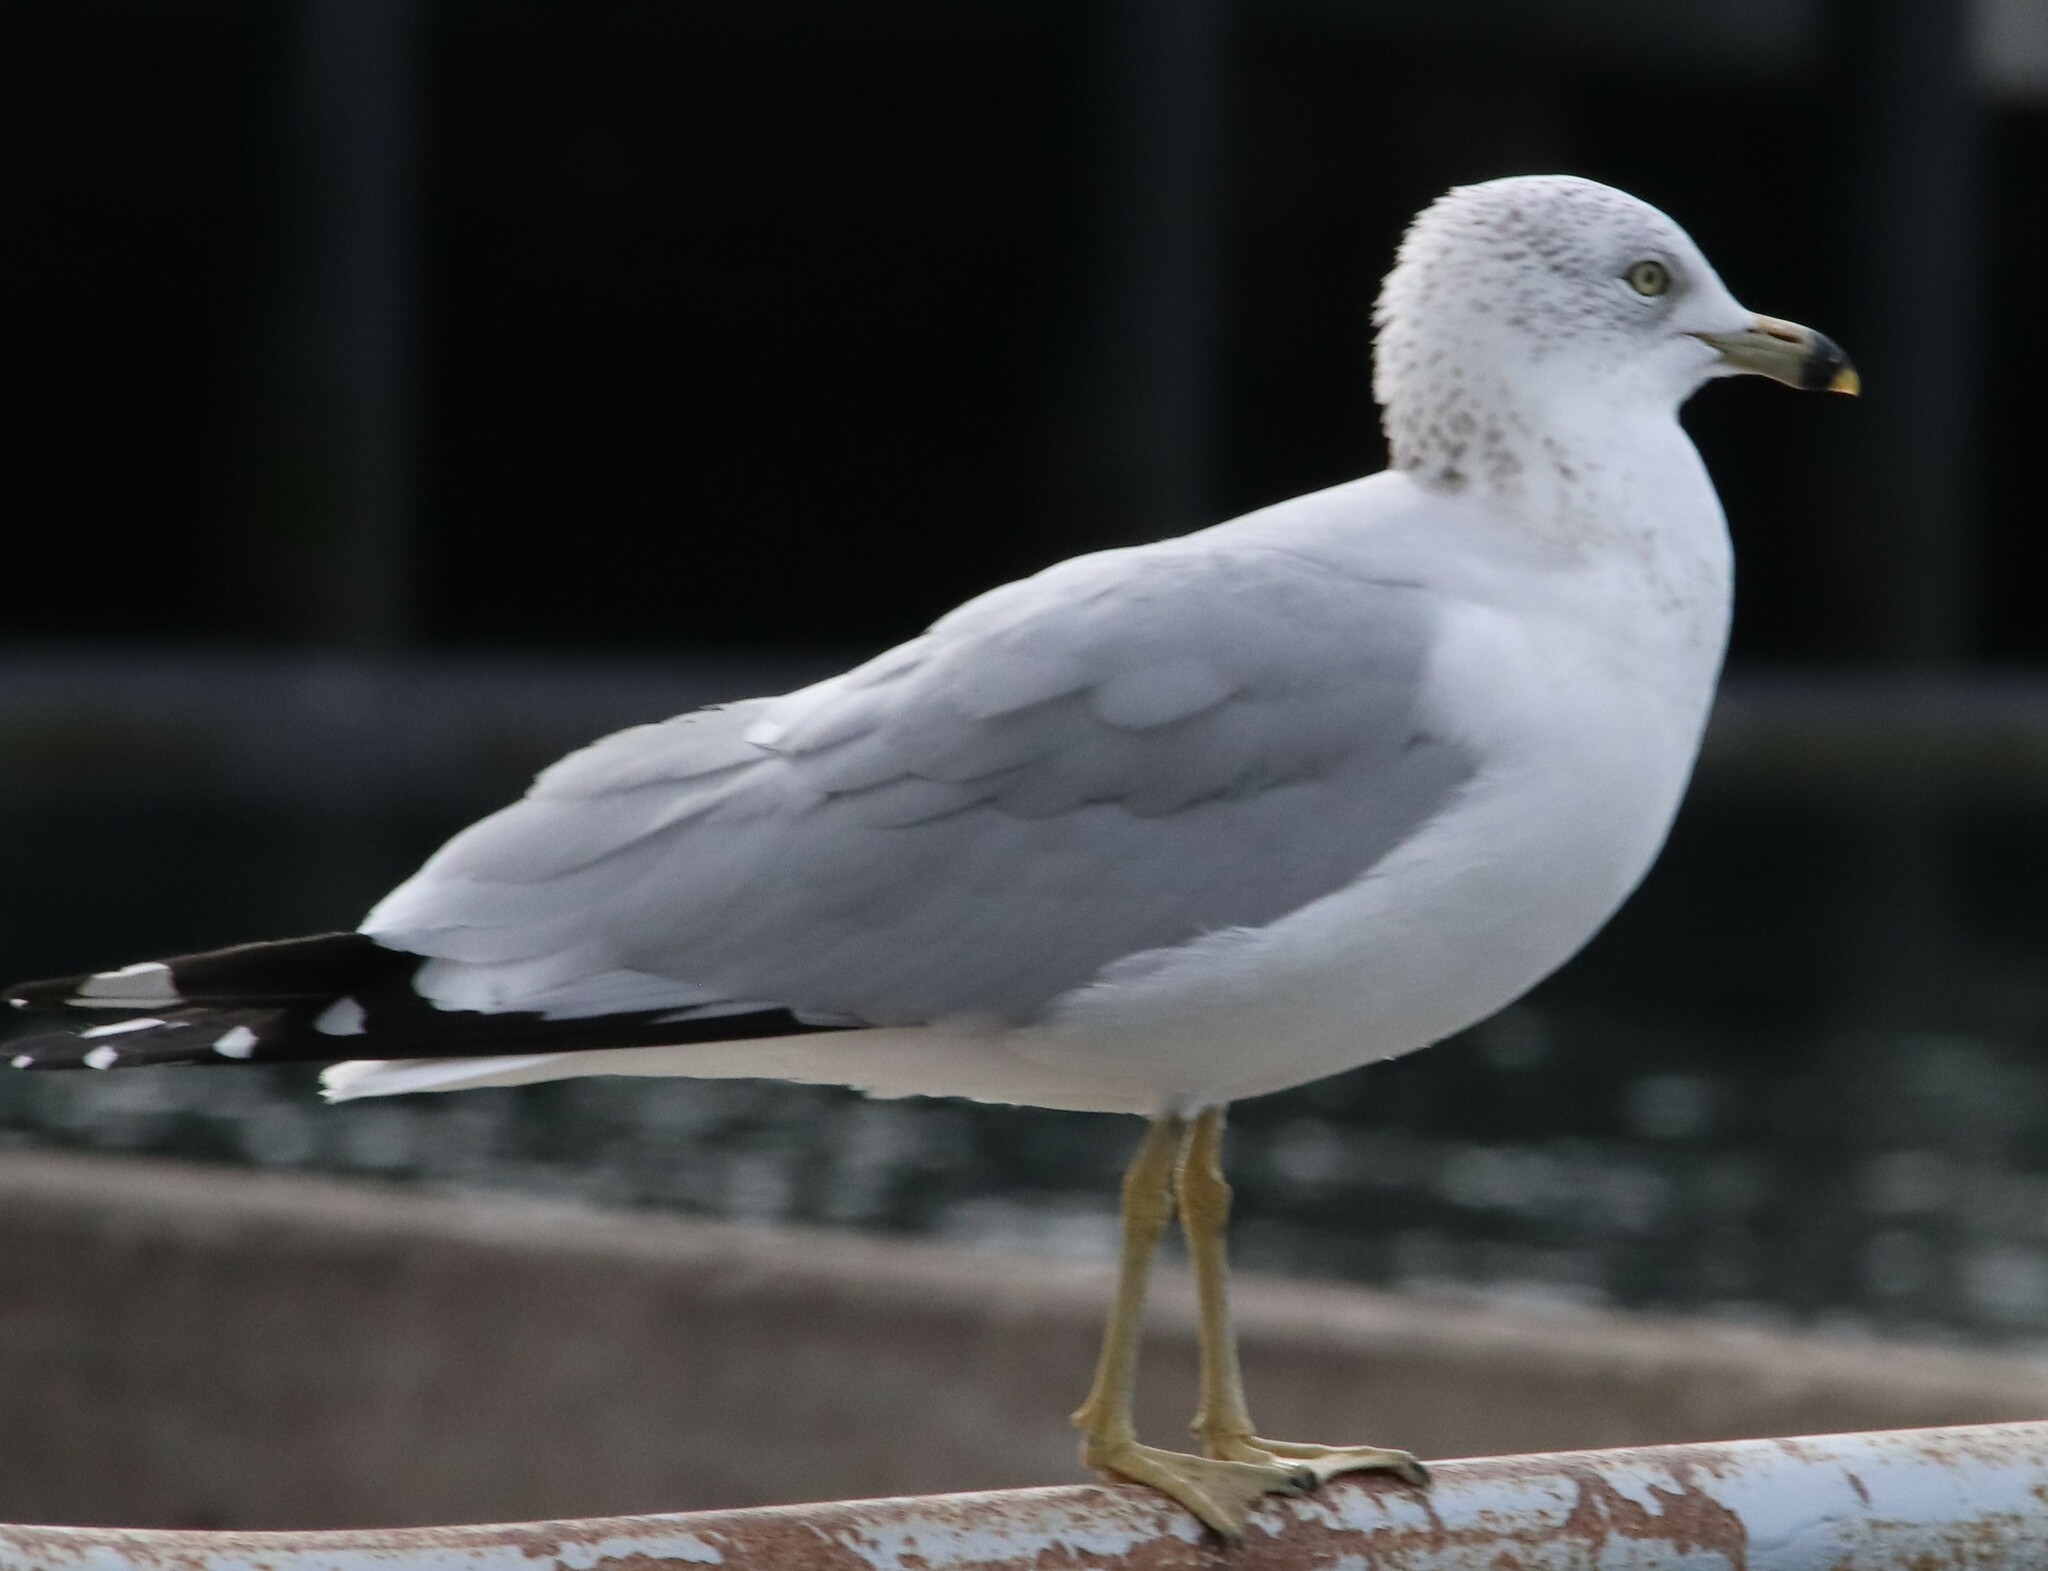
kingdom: Animalia
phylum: Chordata
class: Aves
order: Charadriiformes
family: Laridae
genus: Larus
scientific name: Larus delawarensis
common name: Ring-billed gull
